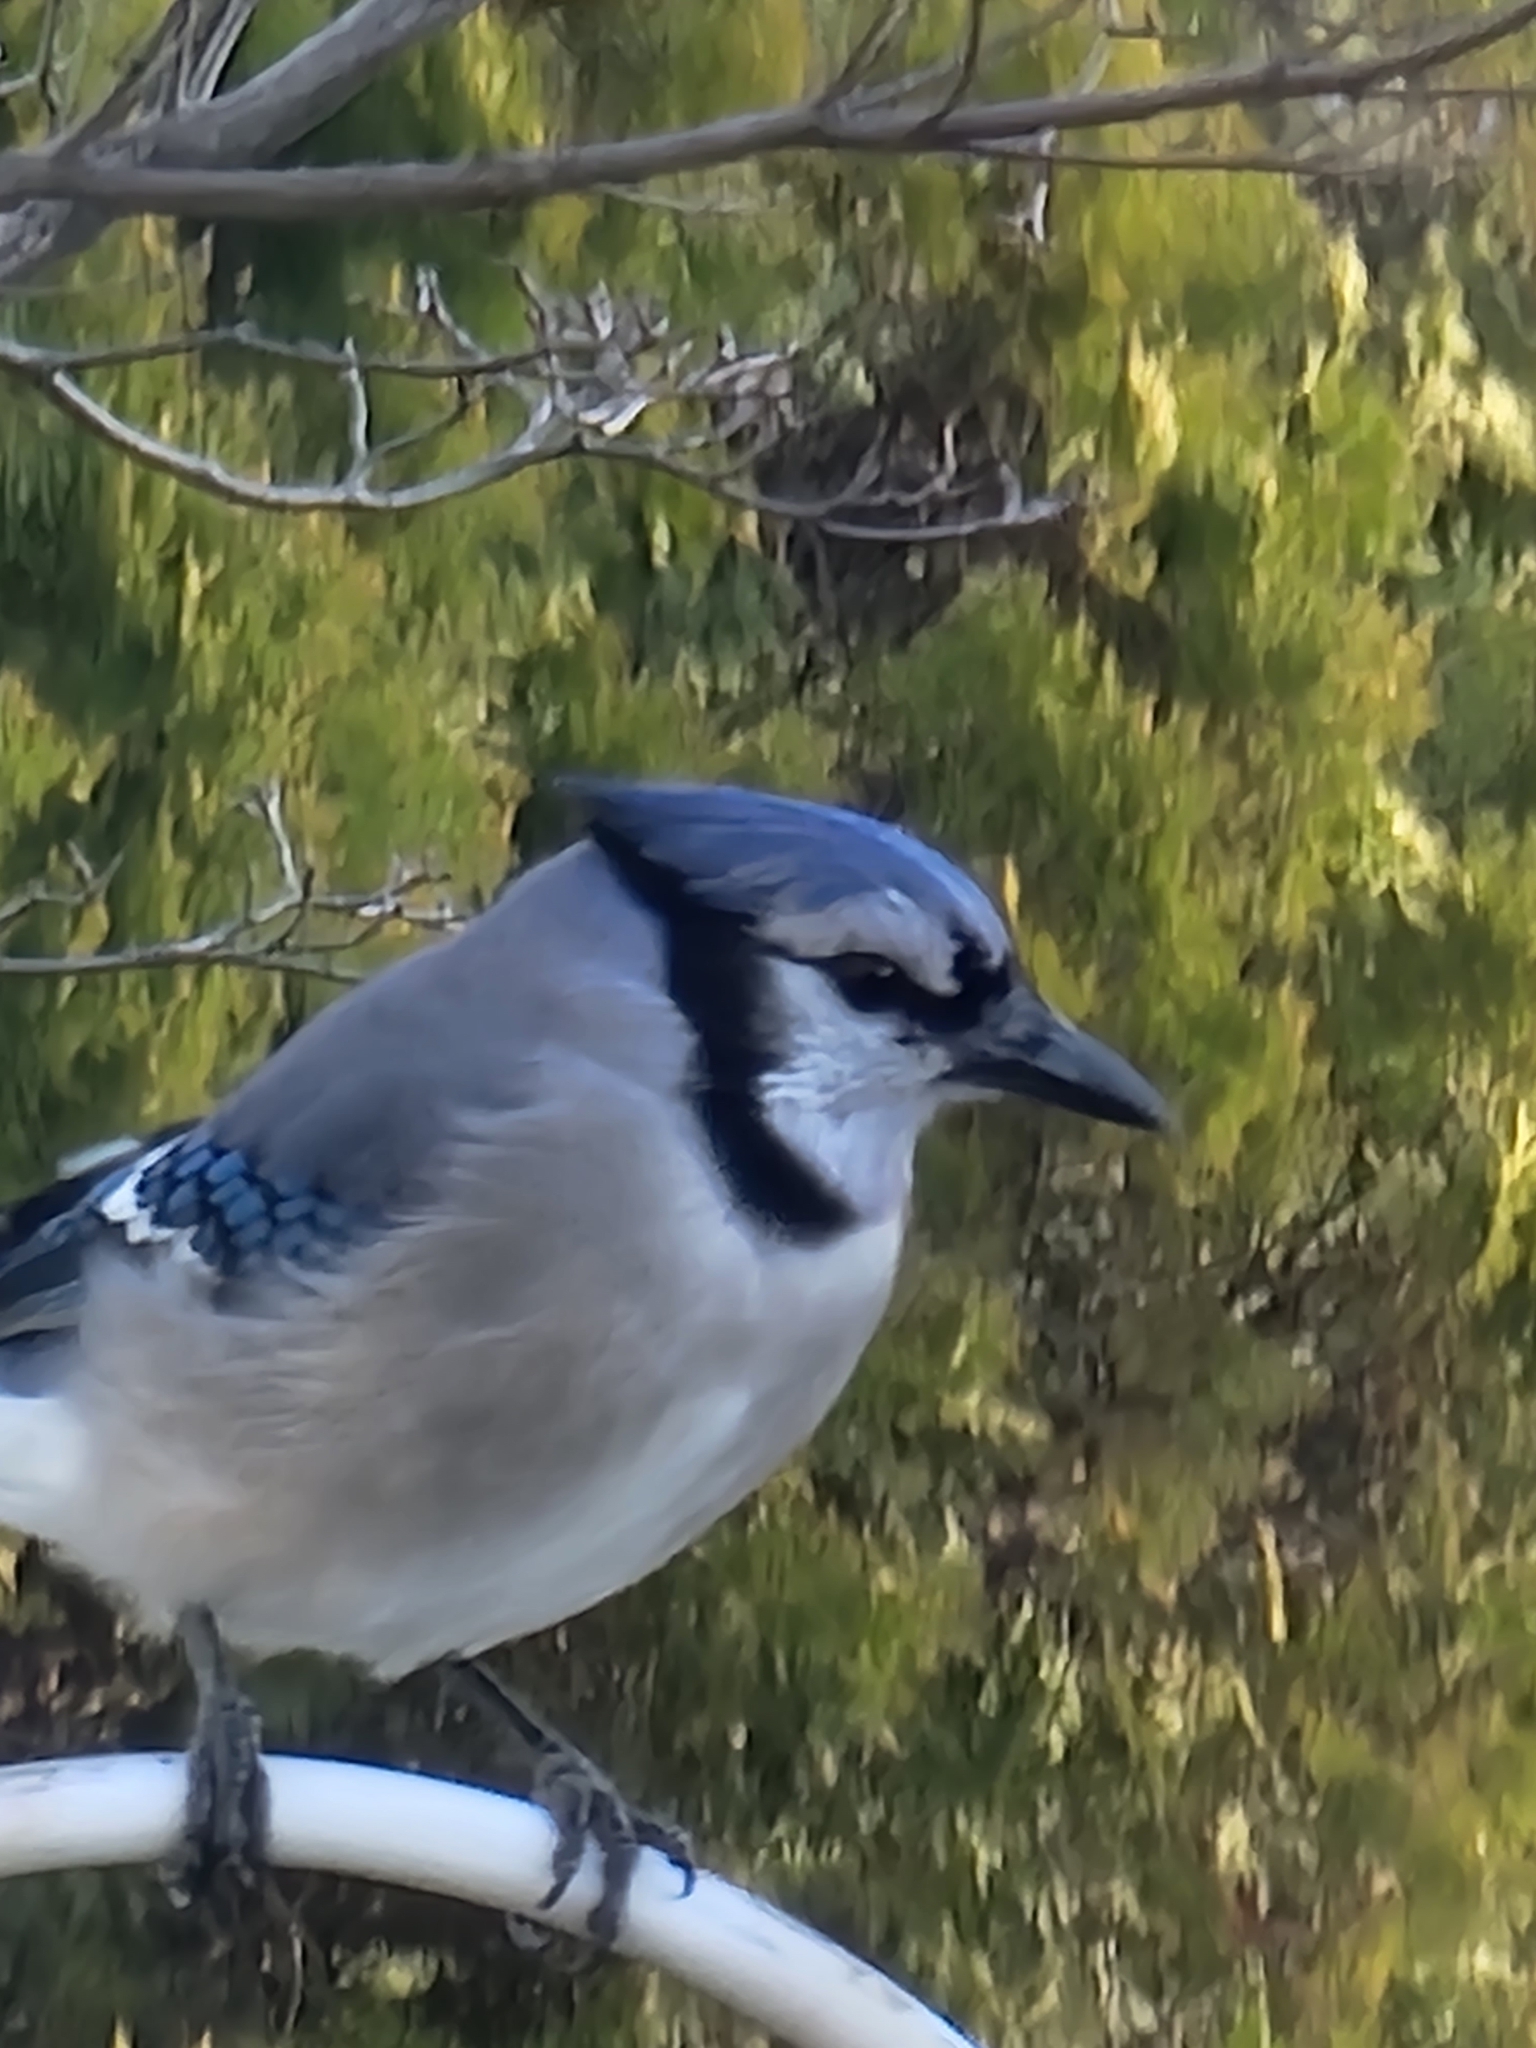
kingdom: Animalia
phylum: Chordata
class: Aves
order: Passeriformes
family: Corvidae
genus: Cyanocitta
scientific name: Cyanocitta cristata
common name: Blue jay
